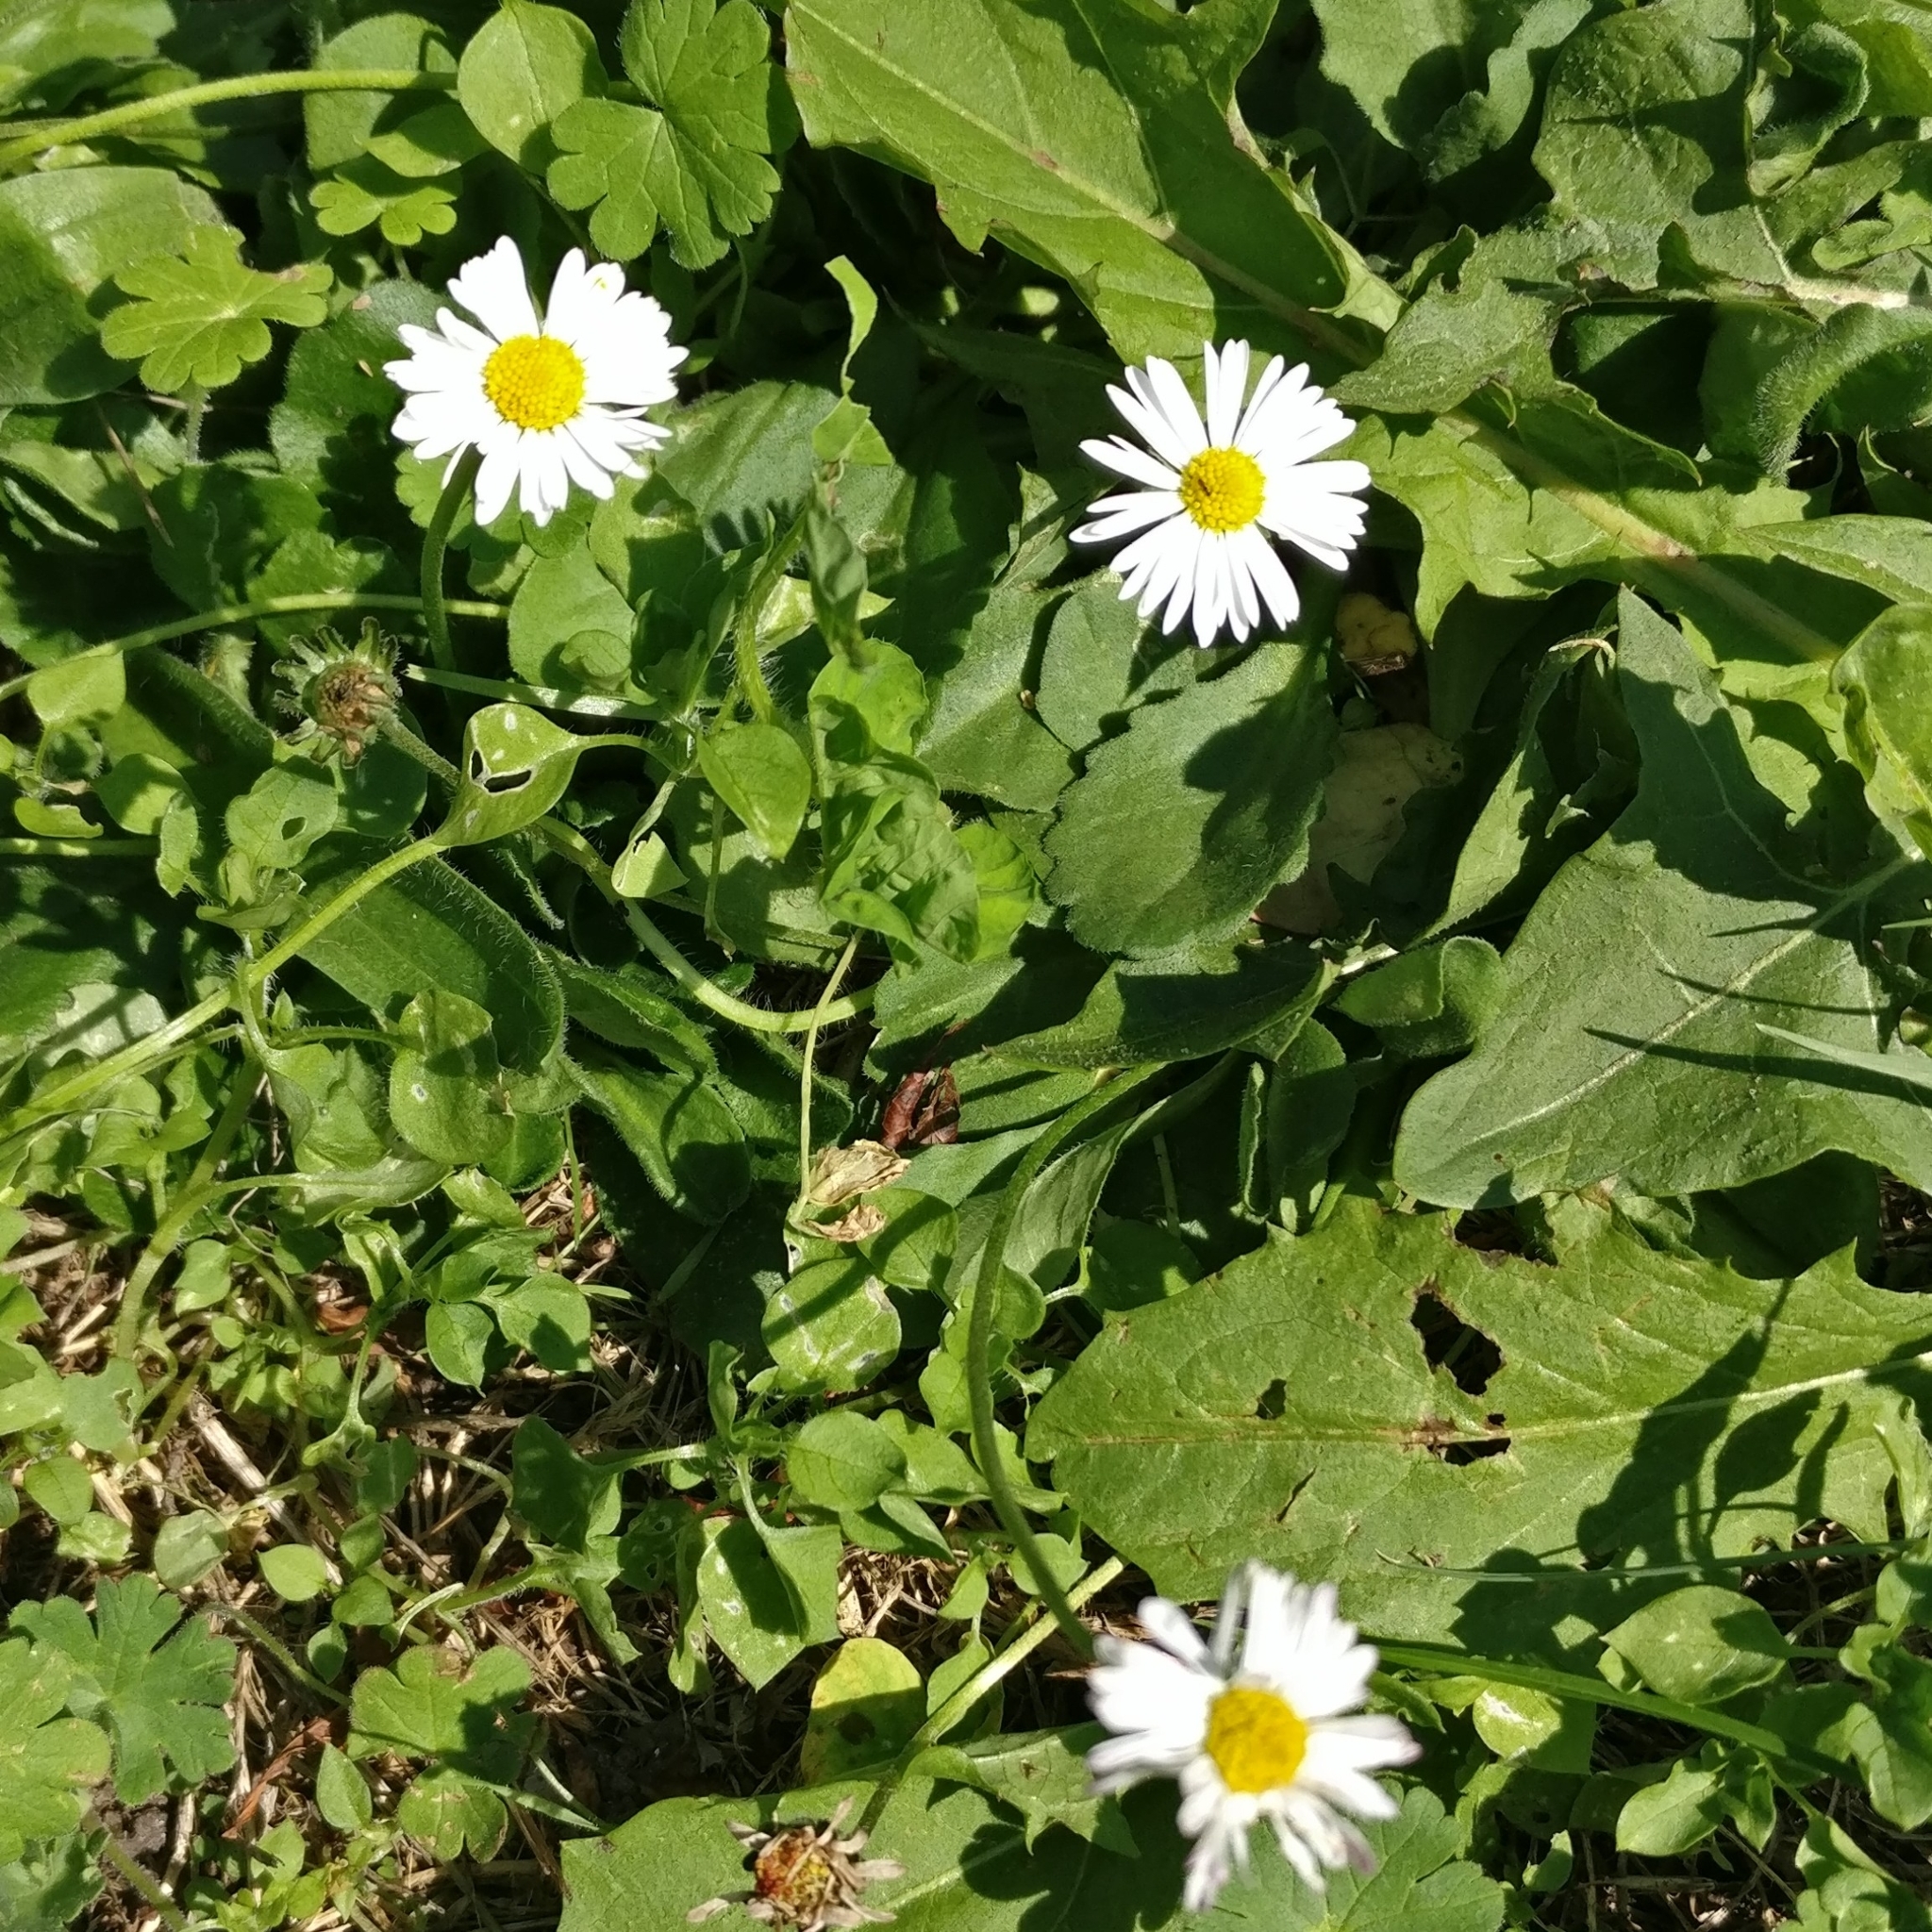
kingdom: Plantae
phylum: Tracheophyta
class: Magnoliopsida
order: Asterales
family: Asteraceae
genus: Bellis
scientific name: Bellis perennis
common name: Lawndaisy
